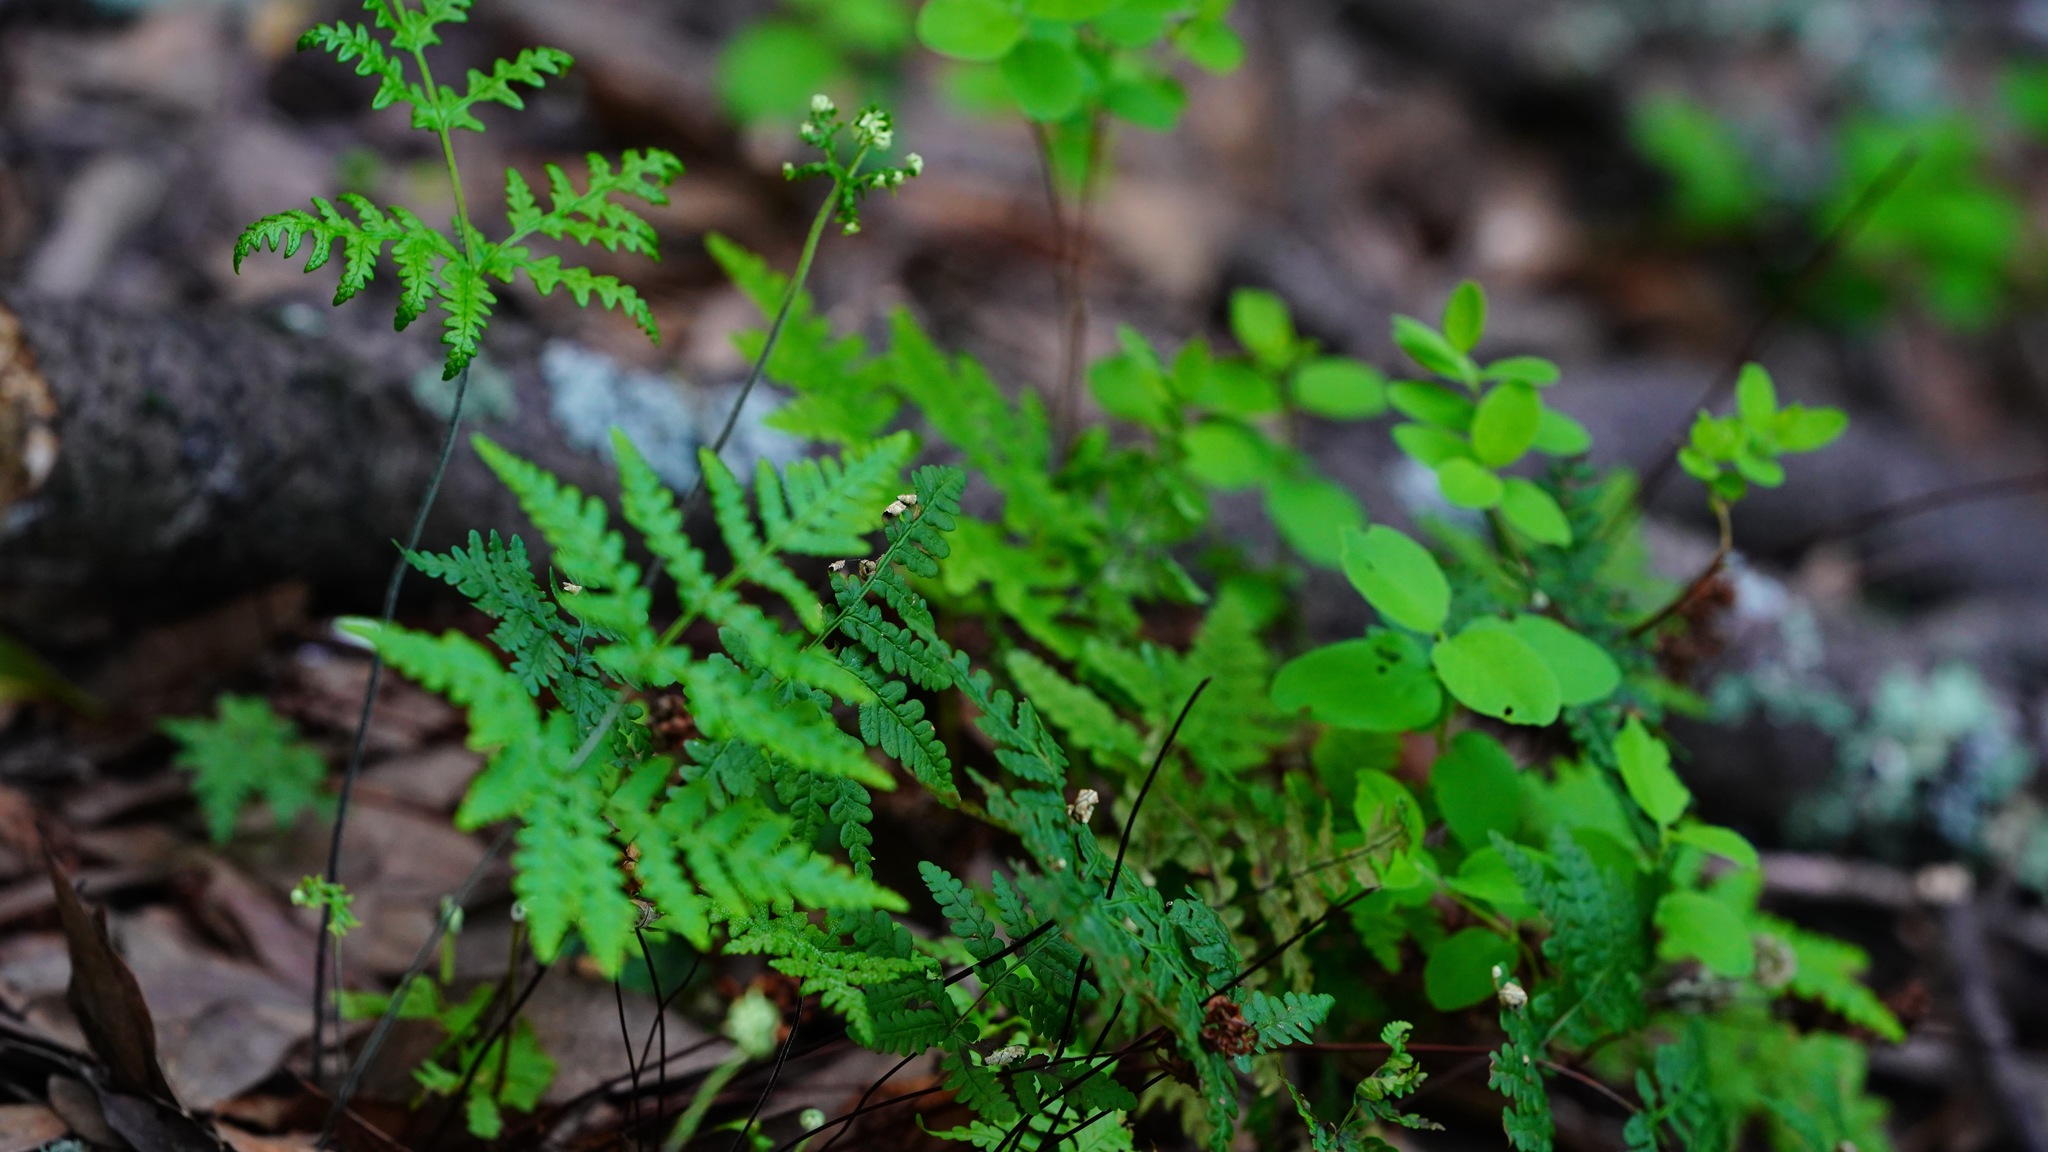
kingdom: Plantae
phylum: Tracheophyta
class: Polypodiopsida
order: Polypodiales
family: Pteridaceae
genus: Pentagramma
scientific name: Pentagramma triangularis
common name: Gold fern
